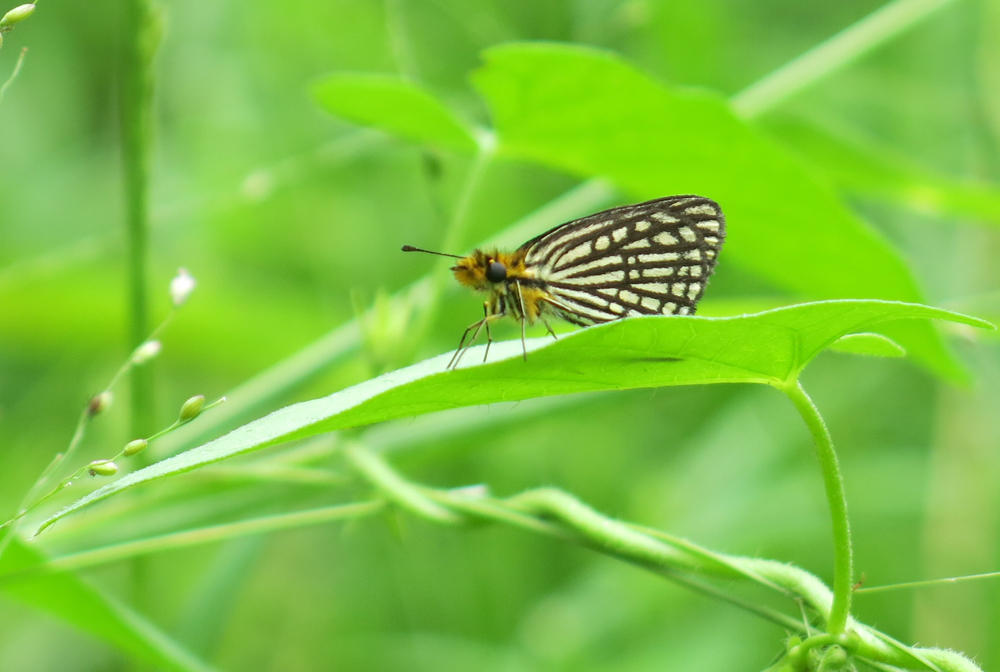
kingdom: Animalia
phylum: Arthropoda
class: Insecta
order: Lepidoptera
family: Hesperiidae
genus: Willema
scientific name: Willema willemi
